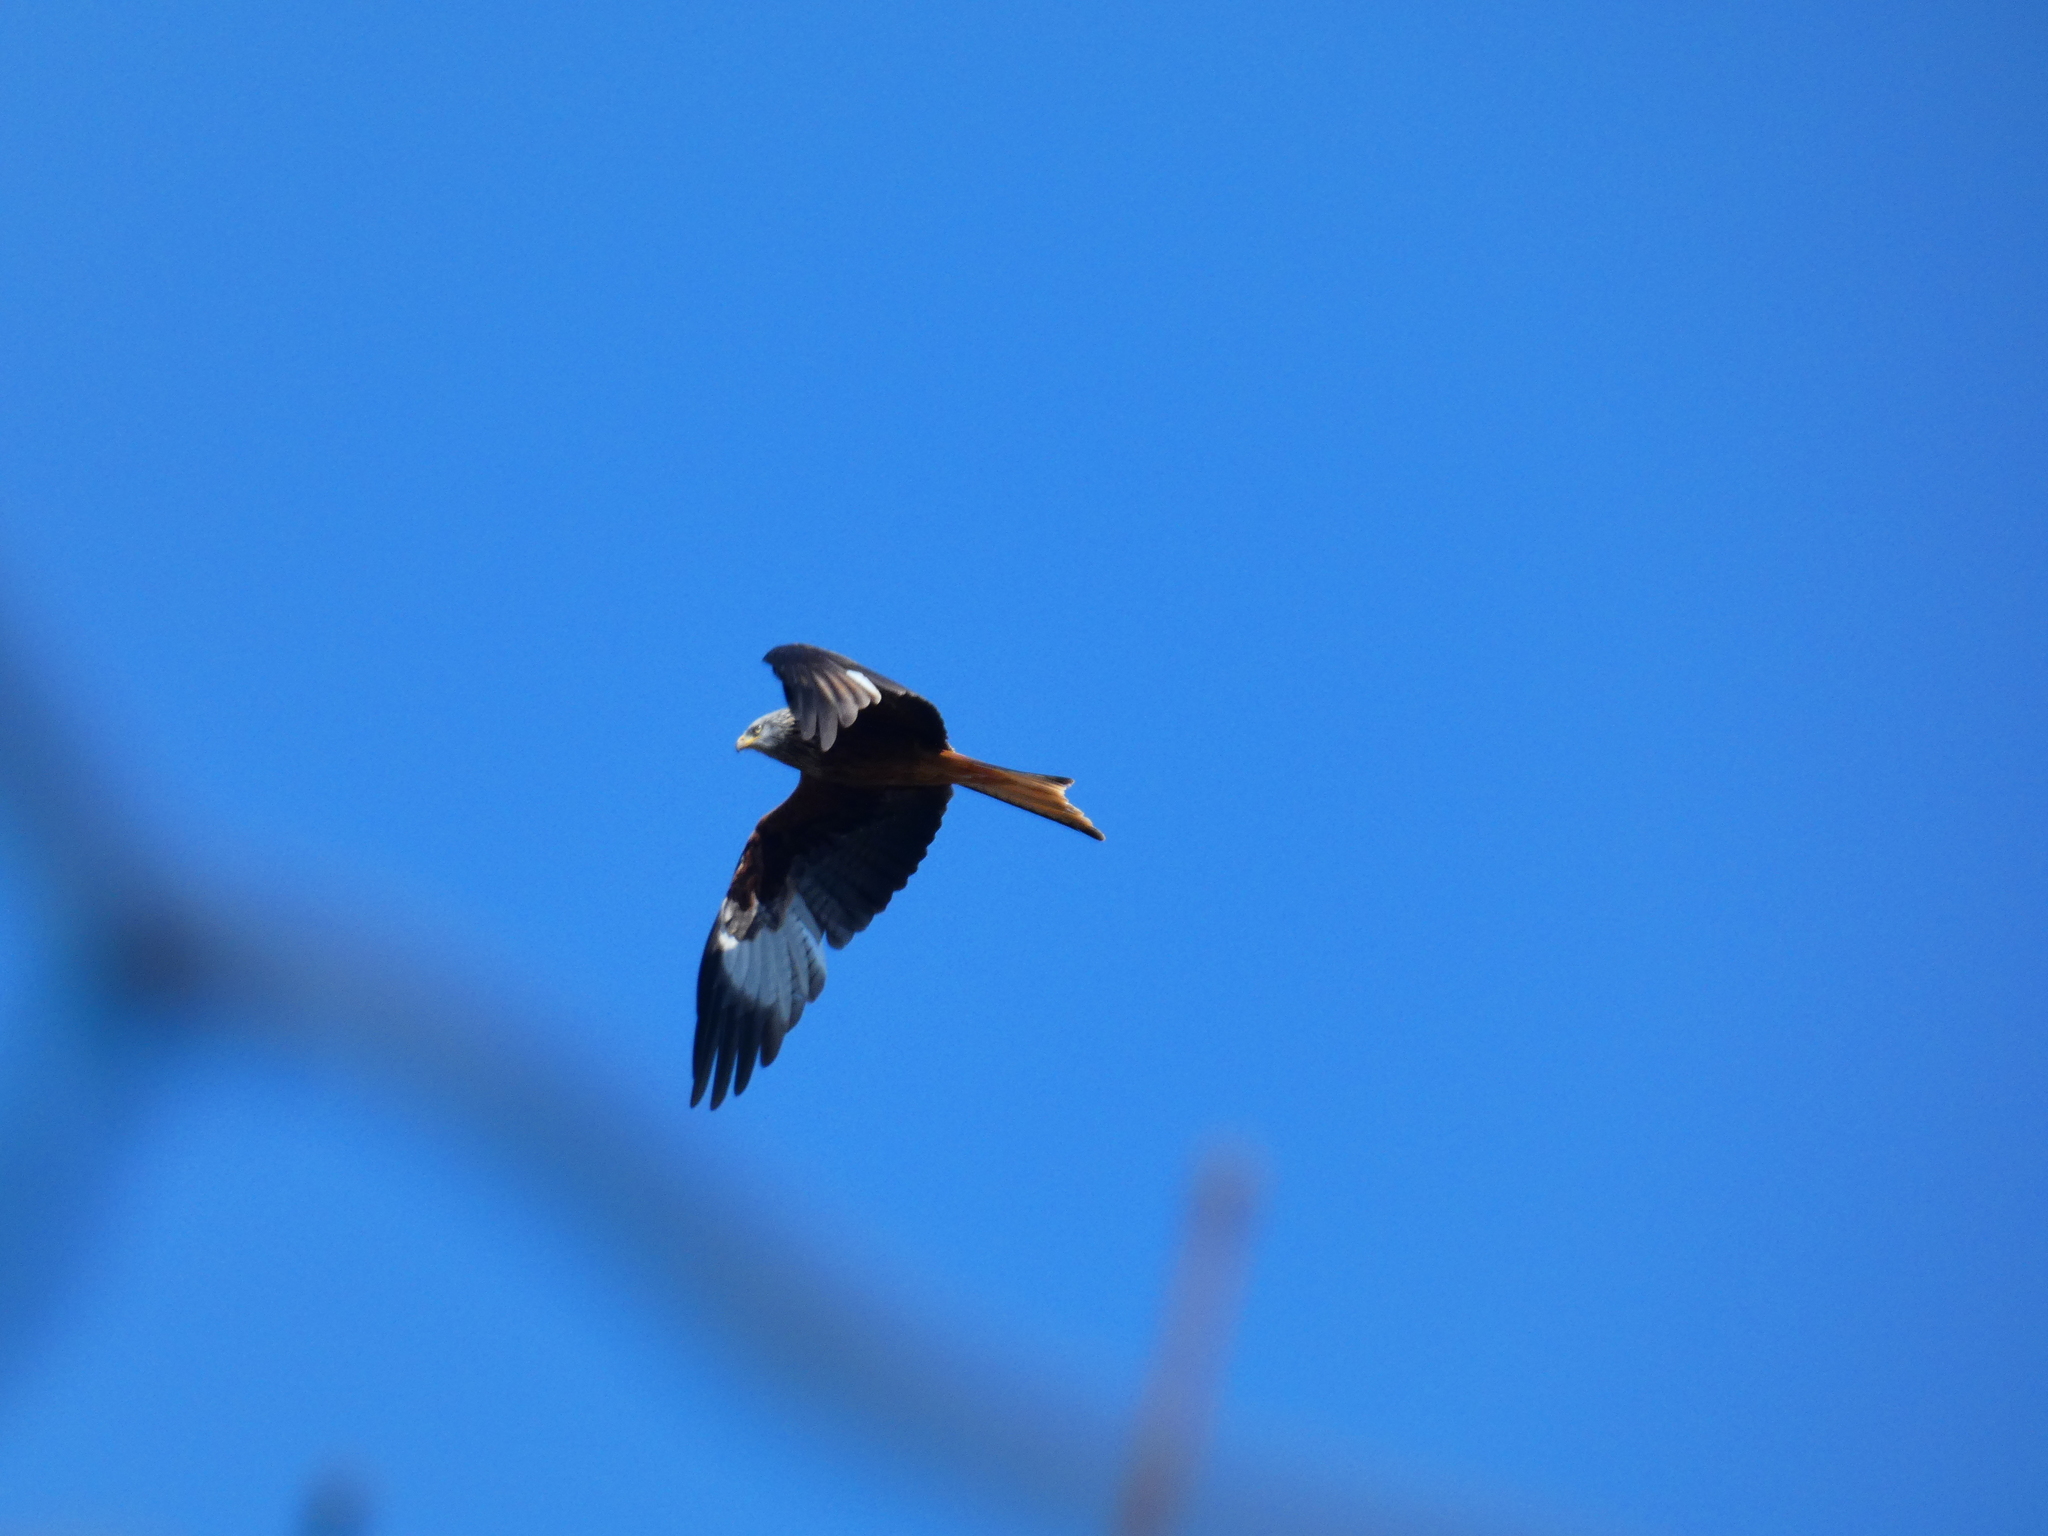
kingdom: Animalia
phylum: Chordata
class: Aves
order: Accipitriformes
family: Accipitridae
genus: Milvus
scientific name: Milvus milvus
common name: Red kite
